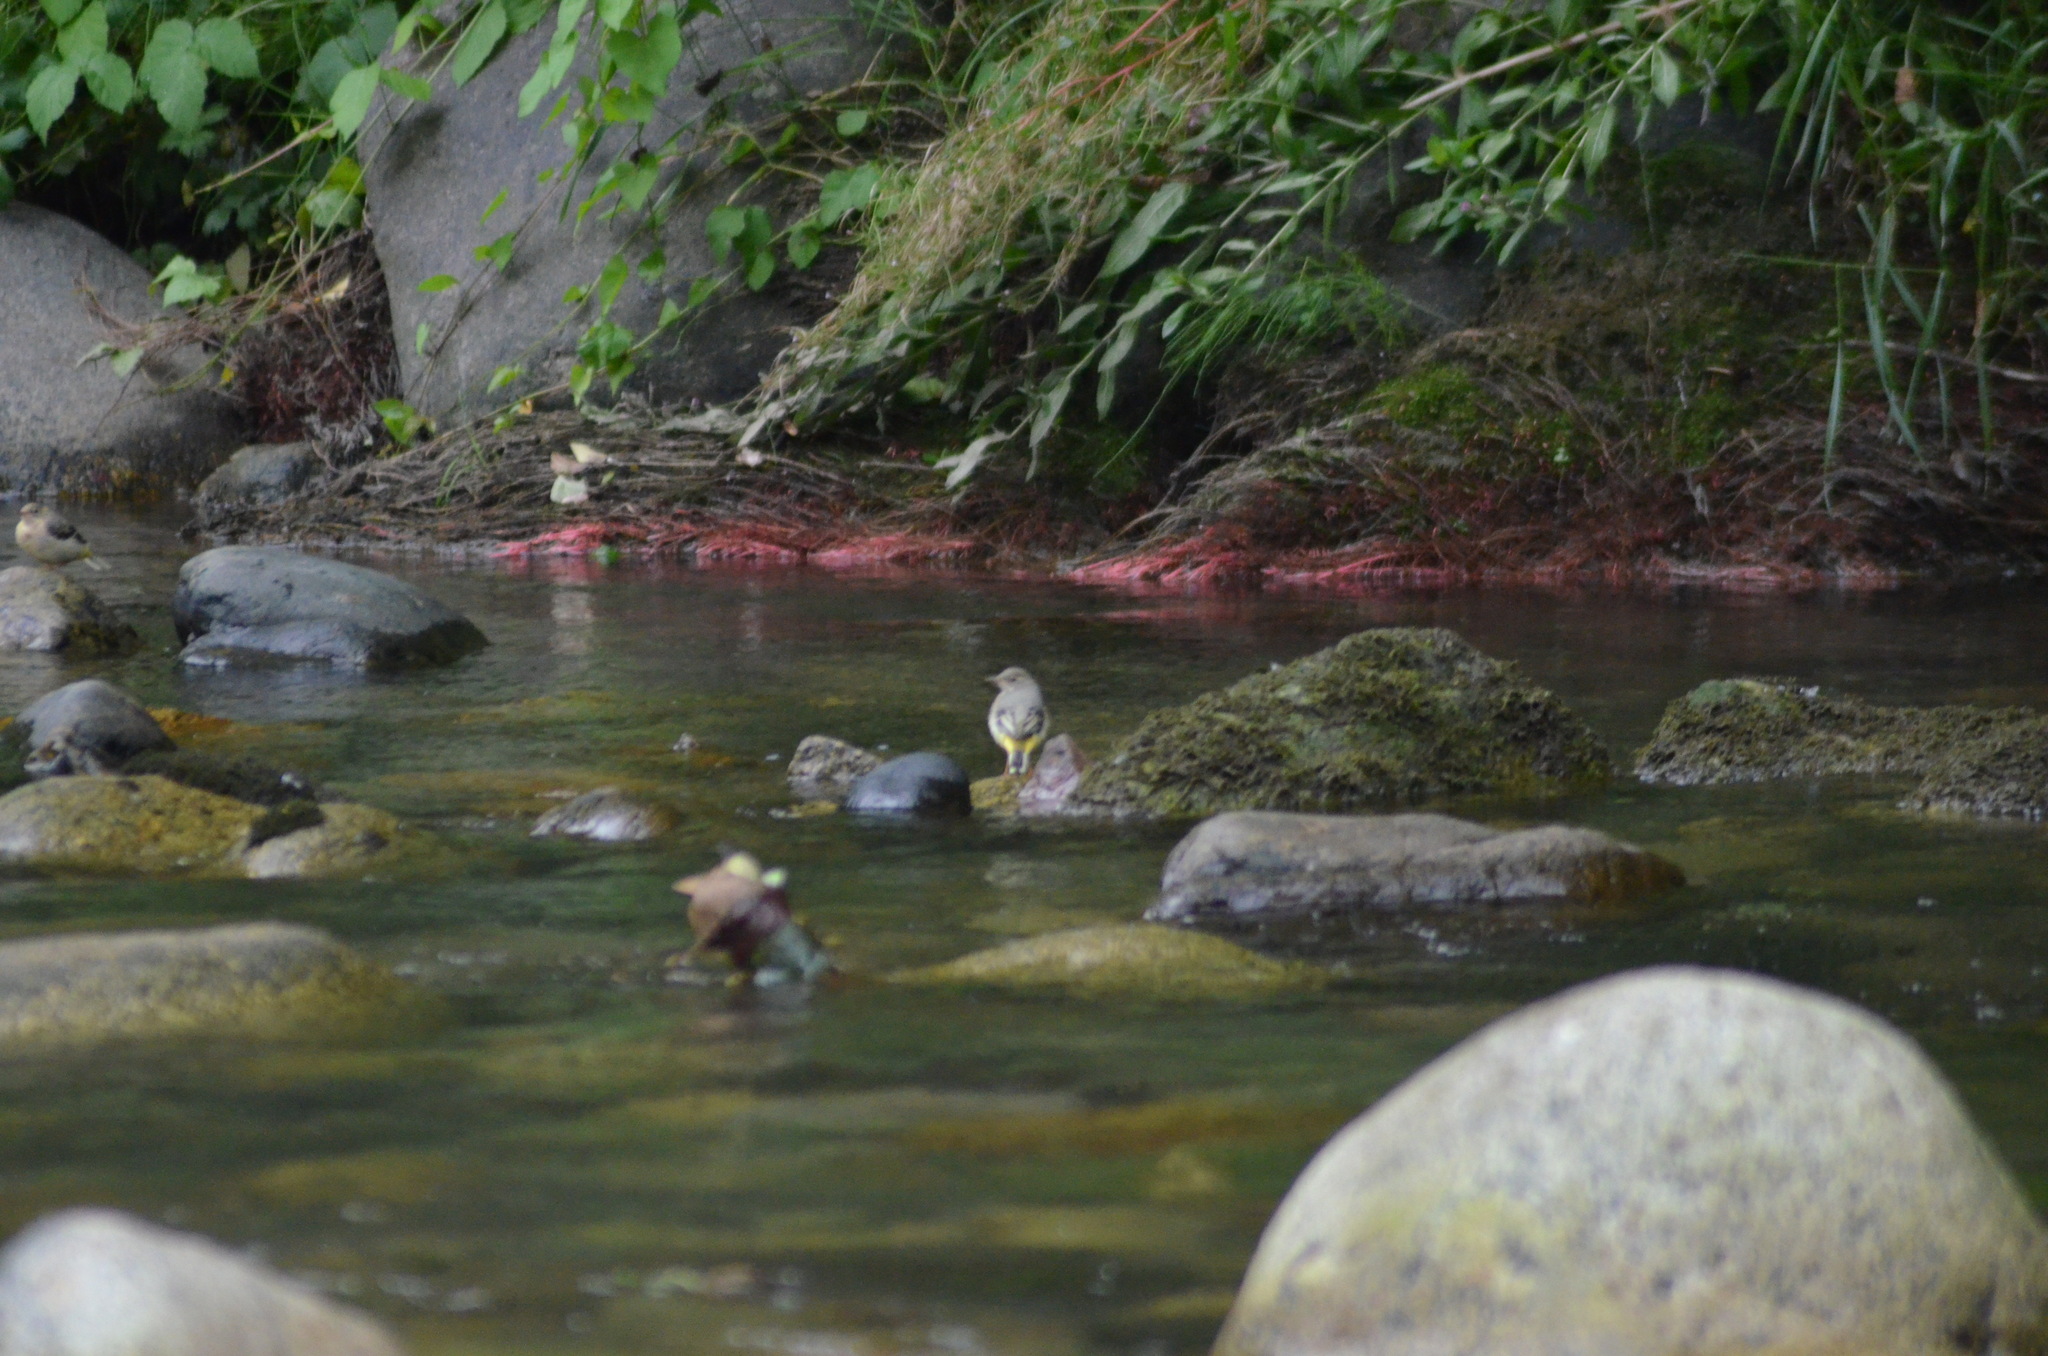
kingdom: Animalia
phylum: Chordata
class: Aves
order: Passeriformes
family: Motacillidae
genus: Motacilla
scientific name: Motacilla cinerea
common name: Grey wagtail
